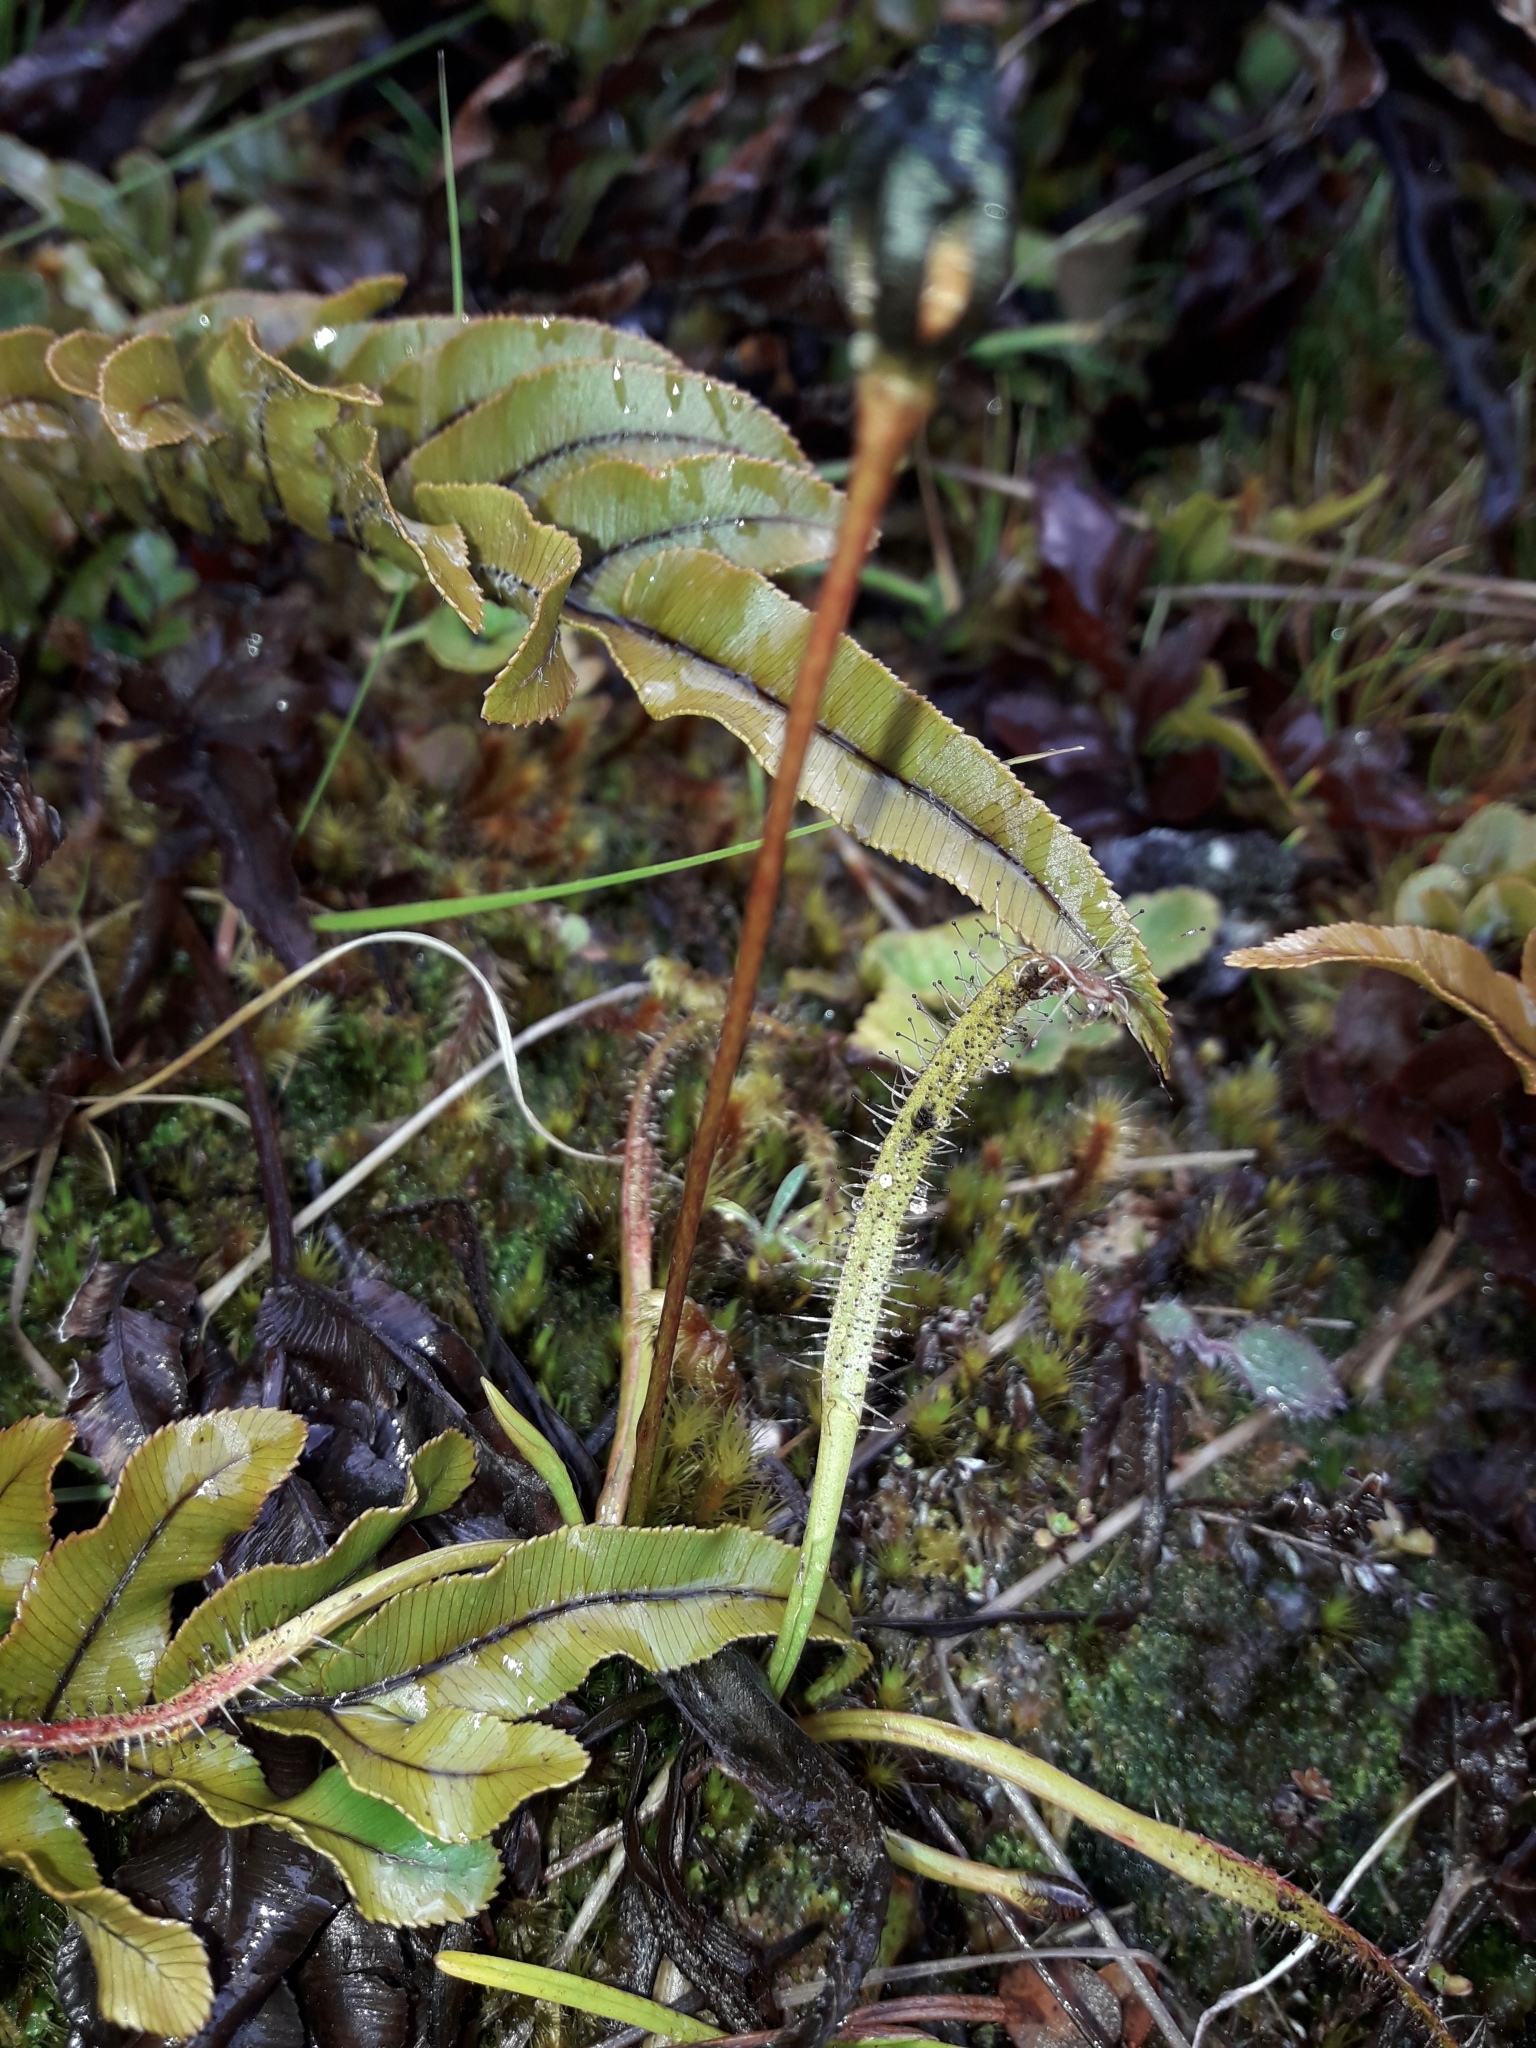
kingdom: Plantae
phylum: Tracheophyta
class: Magnoliopsida
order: Caryophyllales
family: Droseraceae
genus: Drosera
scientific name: Drosera arcturi
